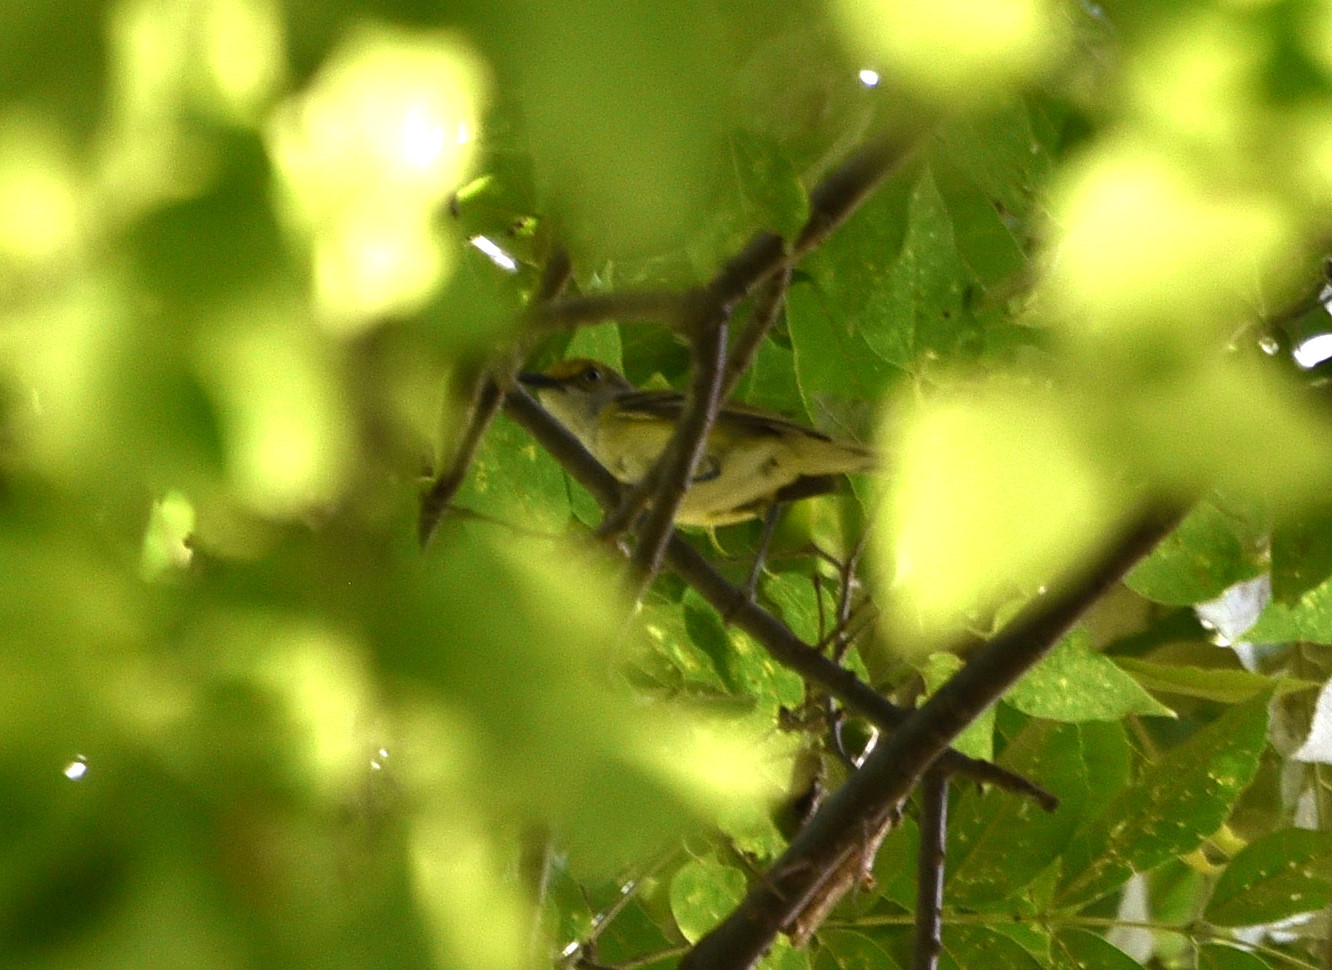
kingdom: Animalia
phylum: Chordata
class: Aves
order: Passeriformes
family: Vireonidae
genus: Vireo
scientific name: Vireo griseus
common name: White-eyed vireo
